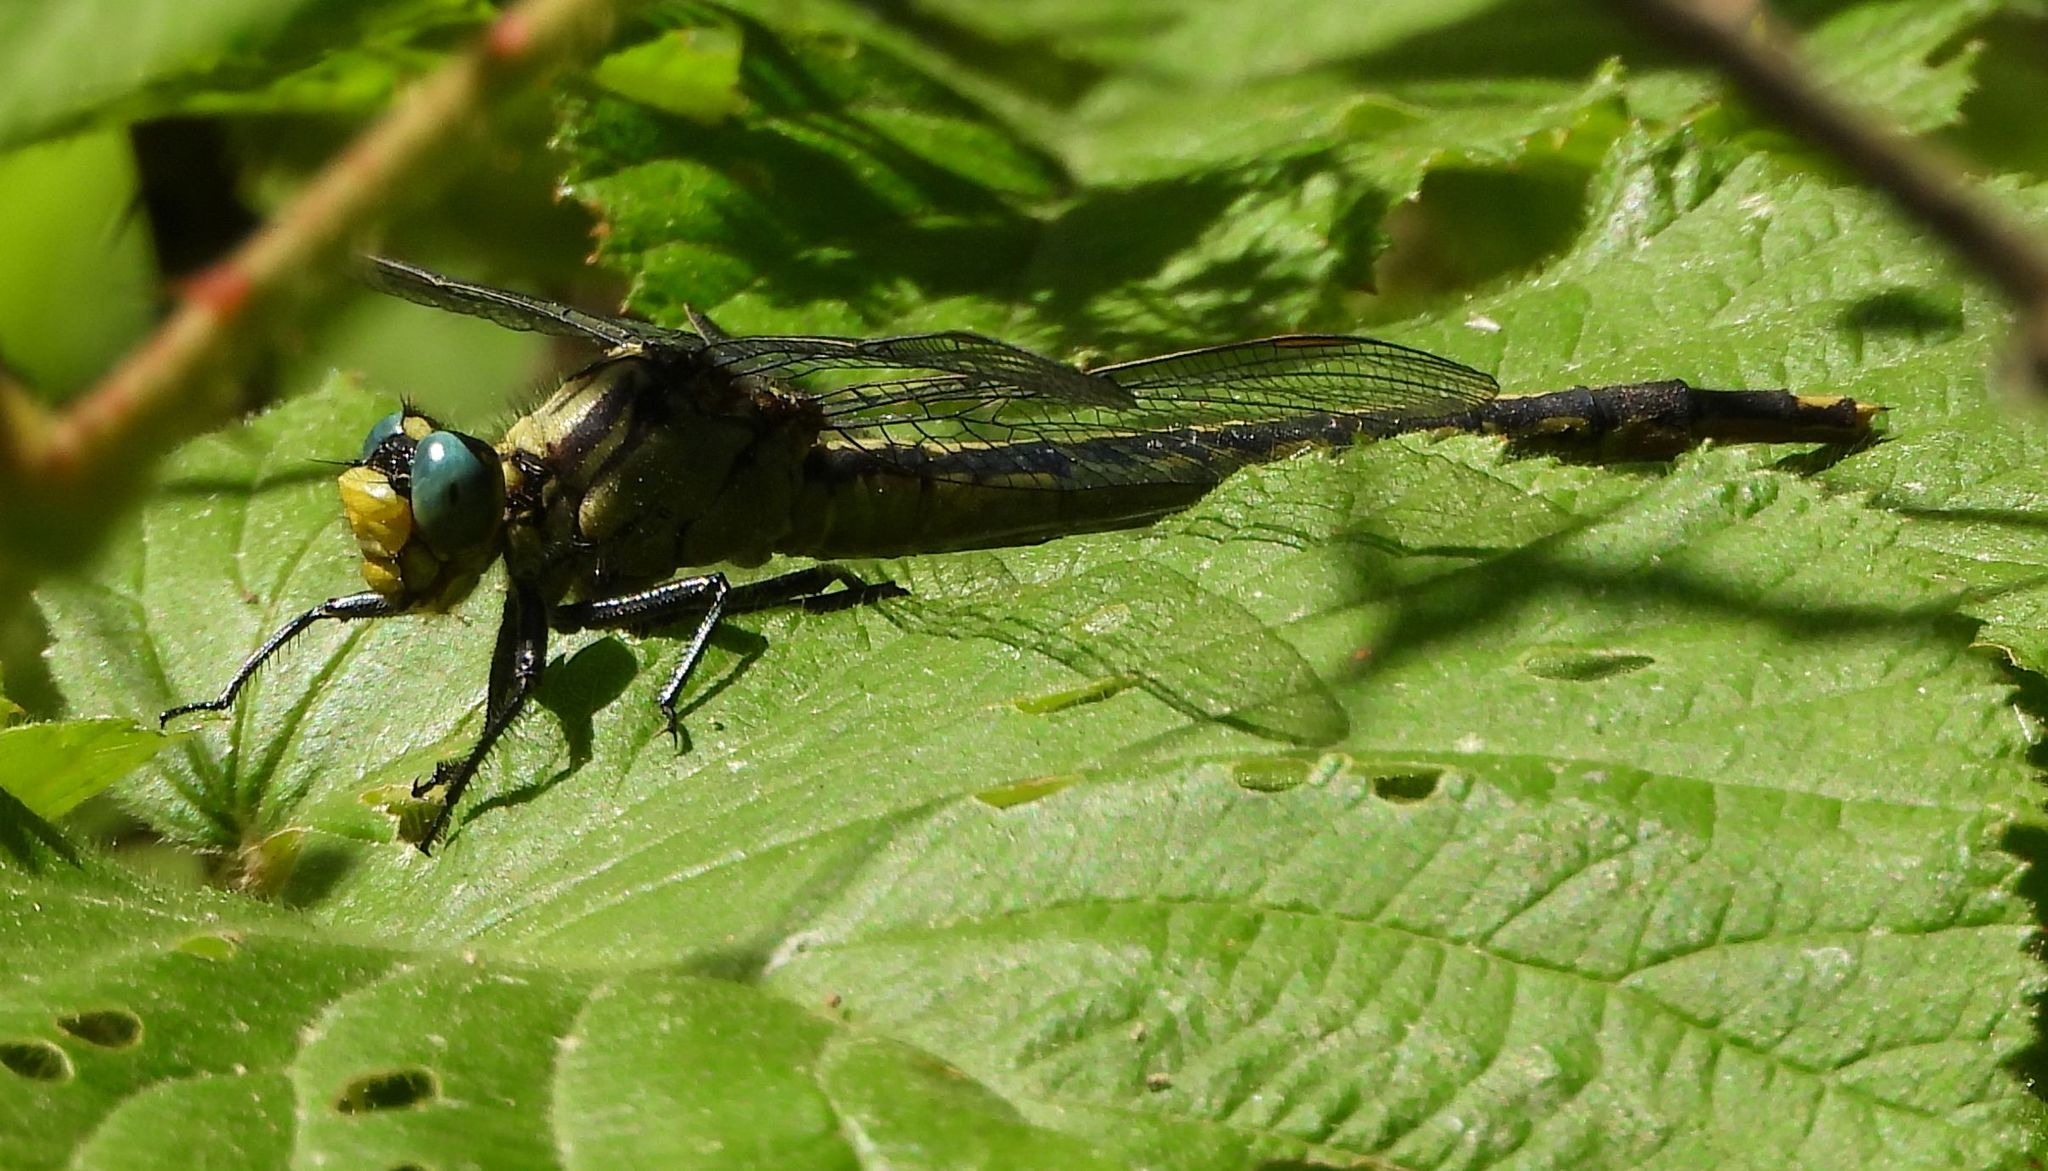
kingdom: Animalia
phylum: Arthropoda
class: Insecta
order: Odonata
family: Gomphidae
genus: Arigomphus
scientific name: Arigomphus furcifer
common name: Lilypad clubtail
